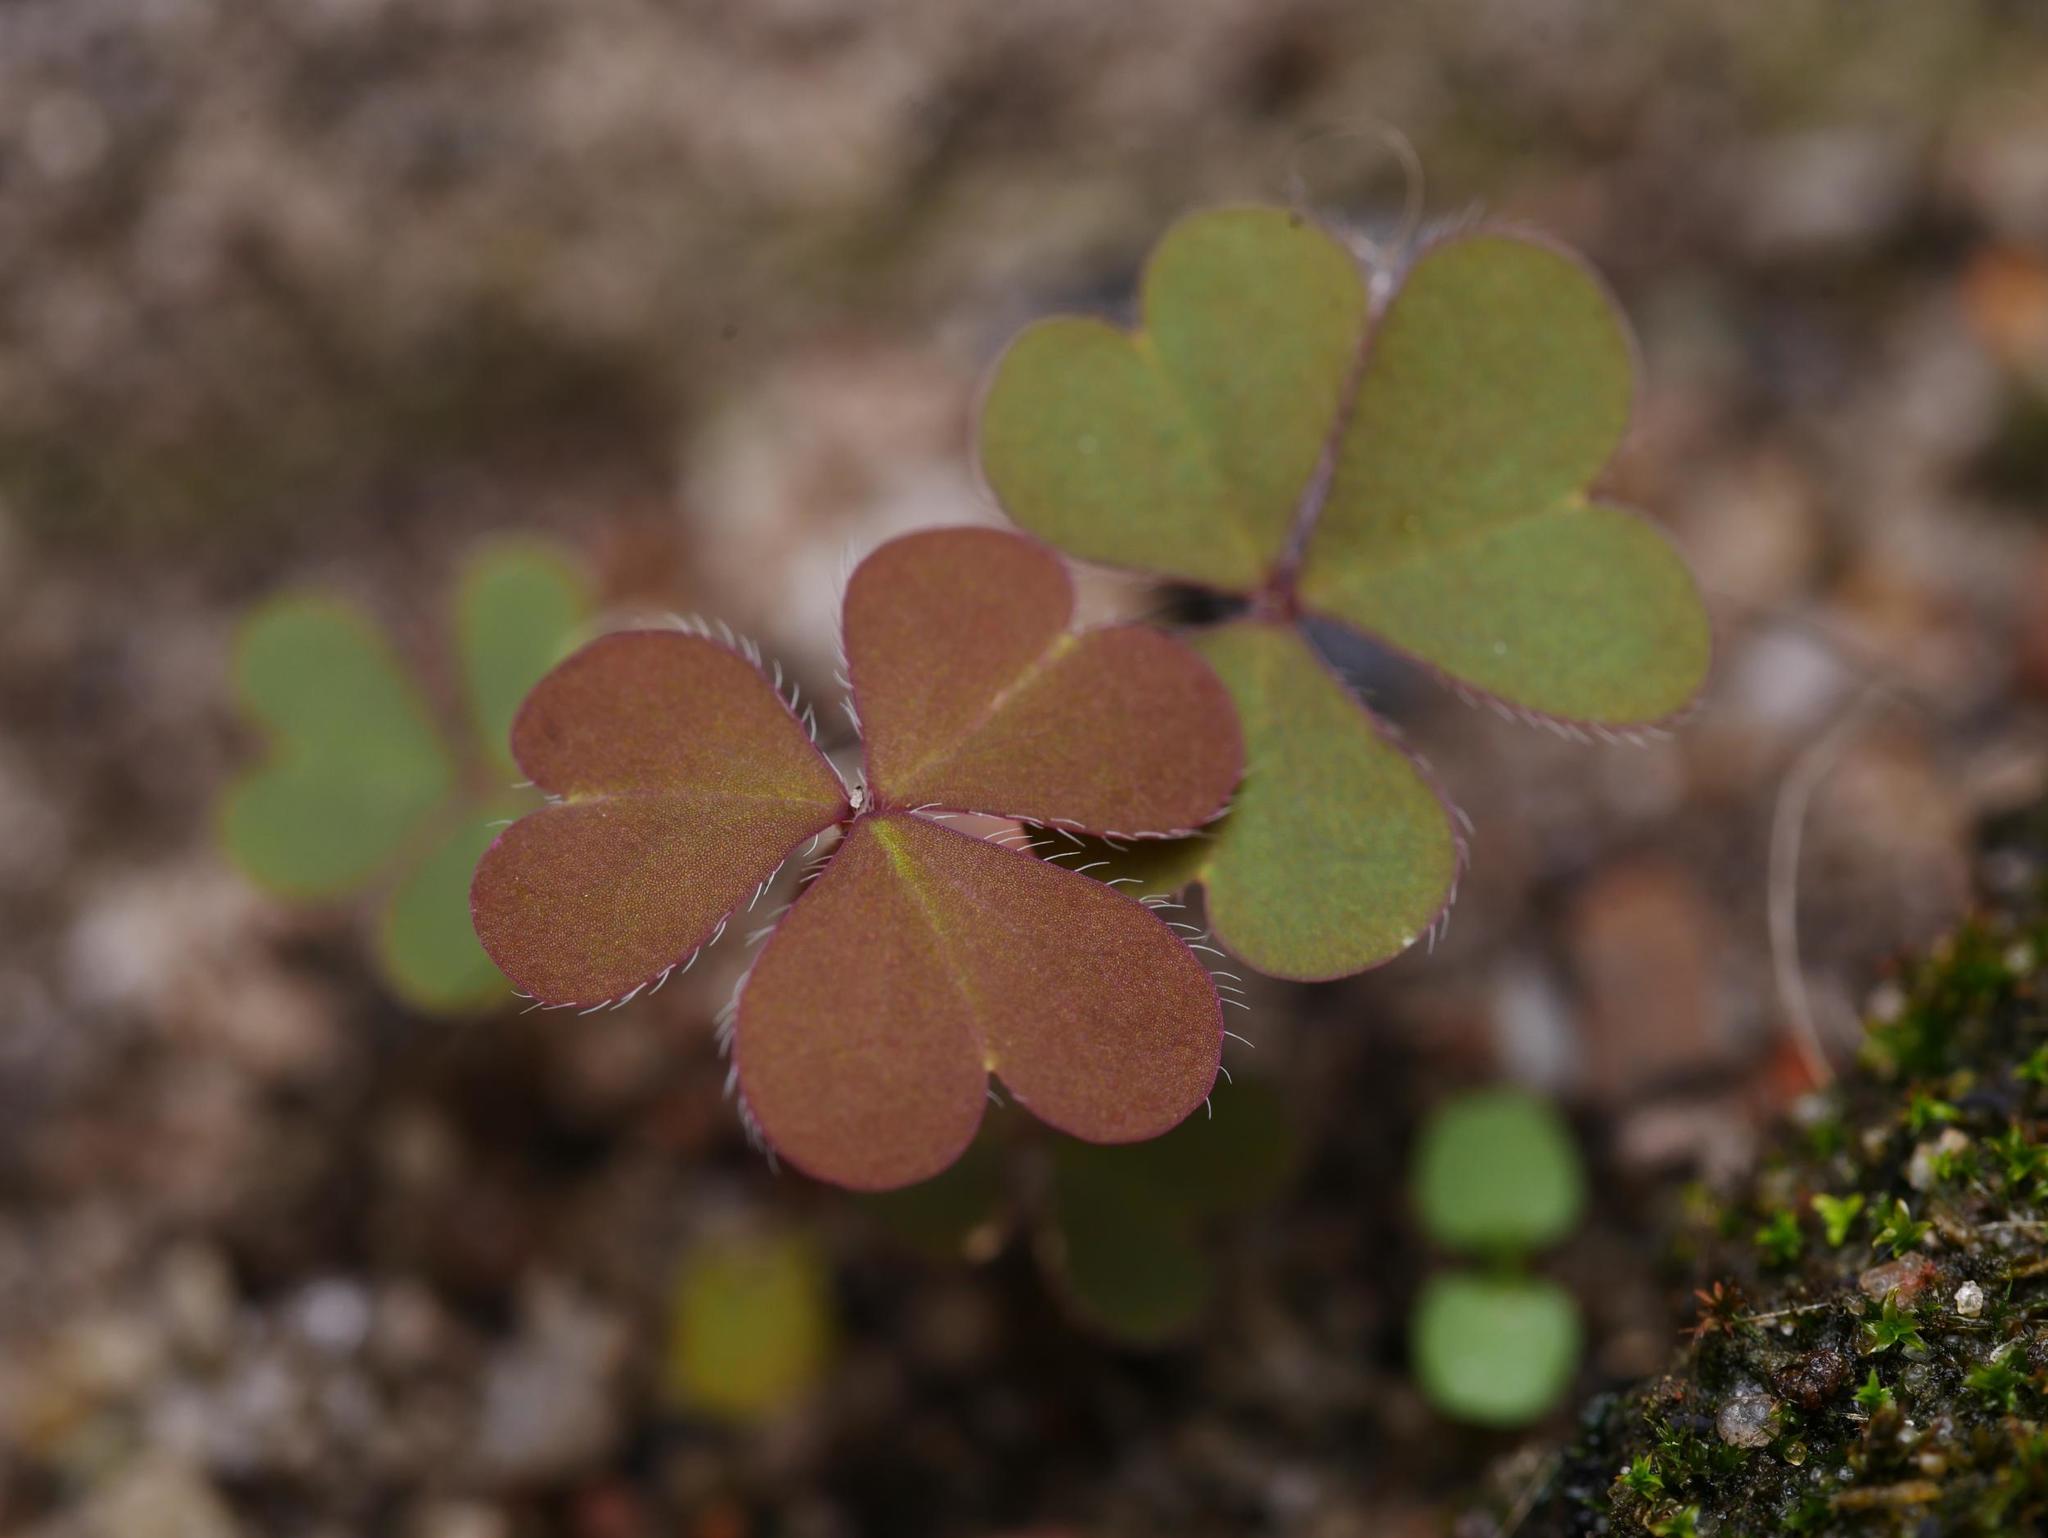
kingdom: Plantae
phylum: Tracheophyta
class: Magnoliopsida
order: Oxalidales
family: Oxalidaceae
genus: Oxalis
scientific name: Oxalis corniculata
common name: Procumbent yellow-sorrel
